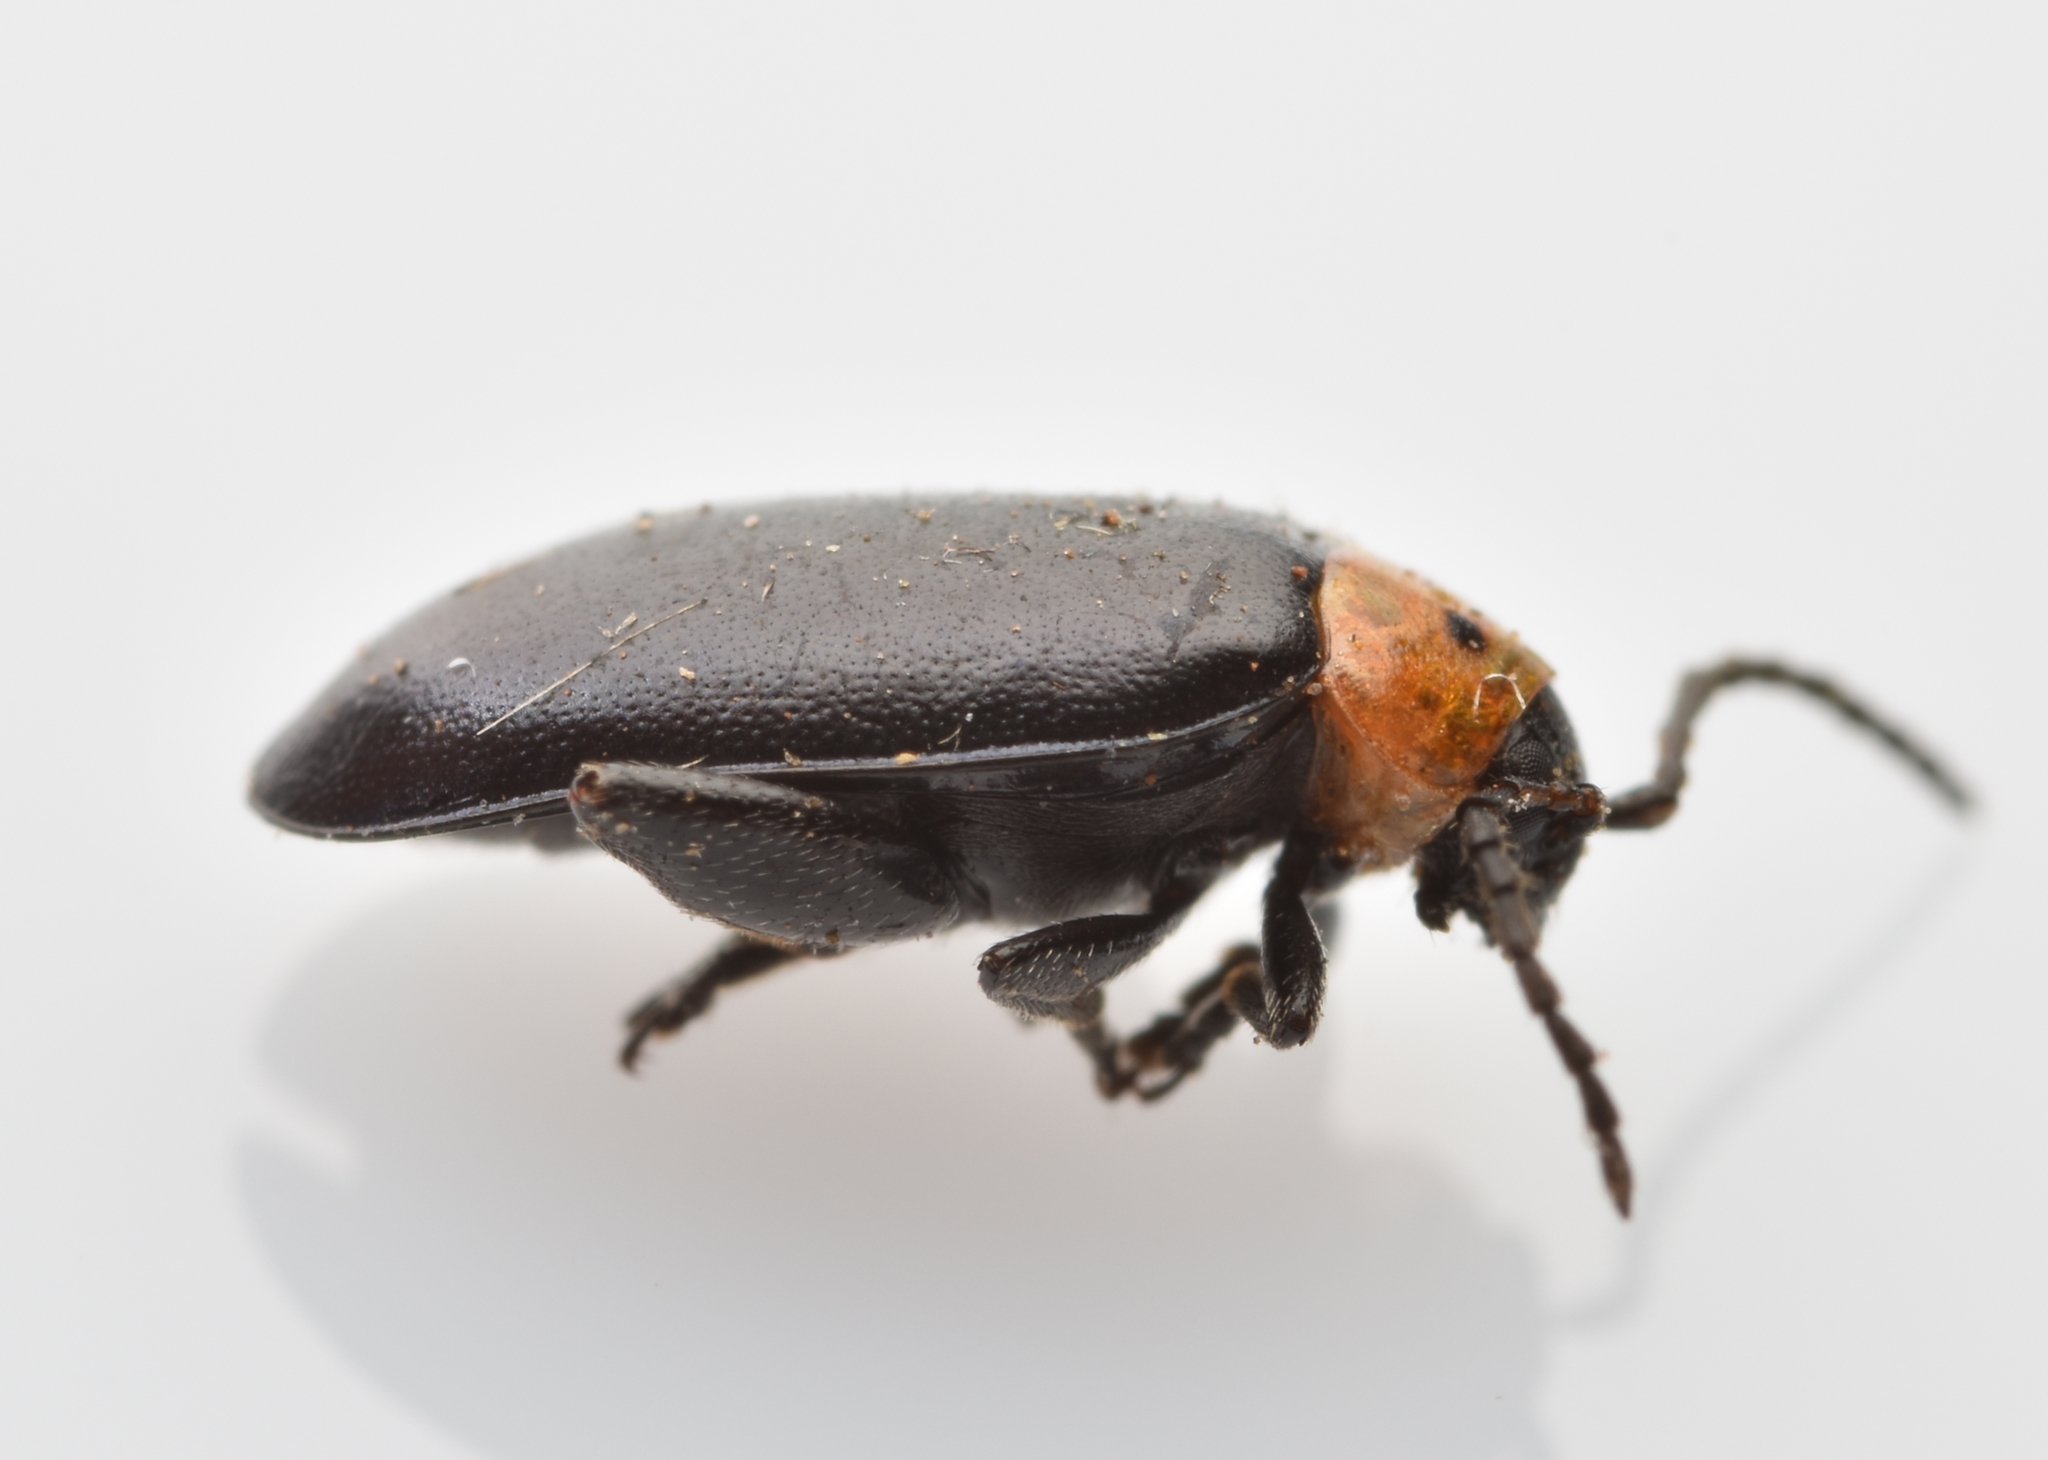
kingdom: Animalia
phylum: Arthropoda
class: Insecta
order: Coleoptera
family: Chrysomelidae
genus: Disonycha
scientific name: Disonycha triangularis
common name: Three-spotted flea beetle
